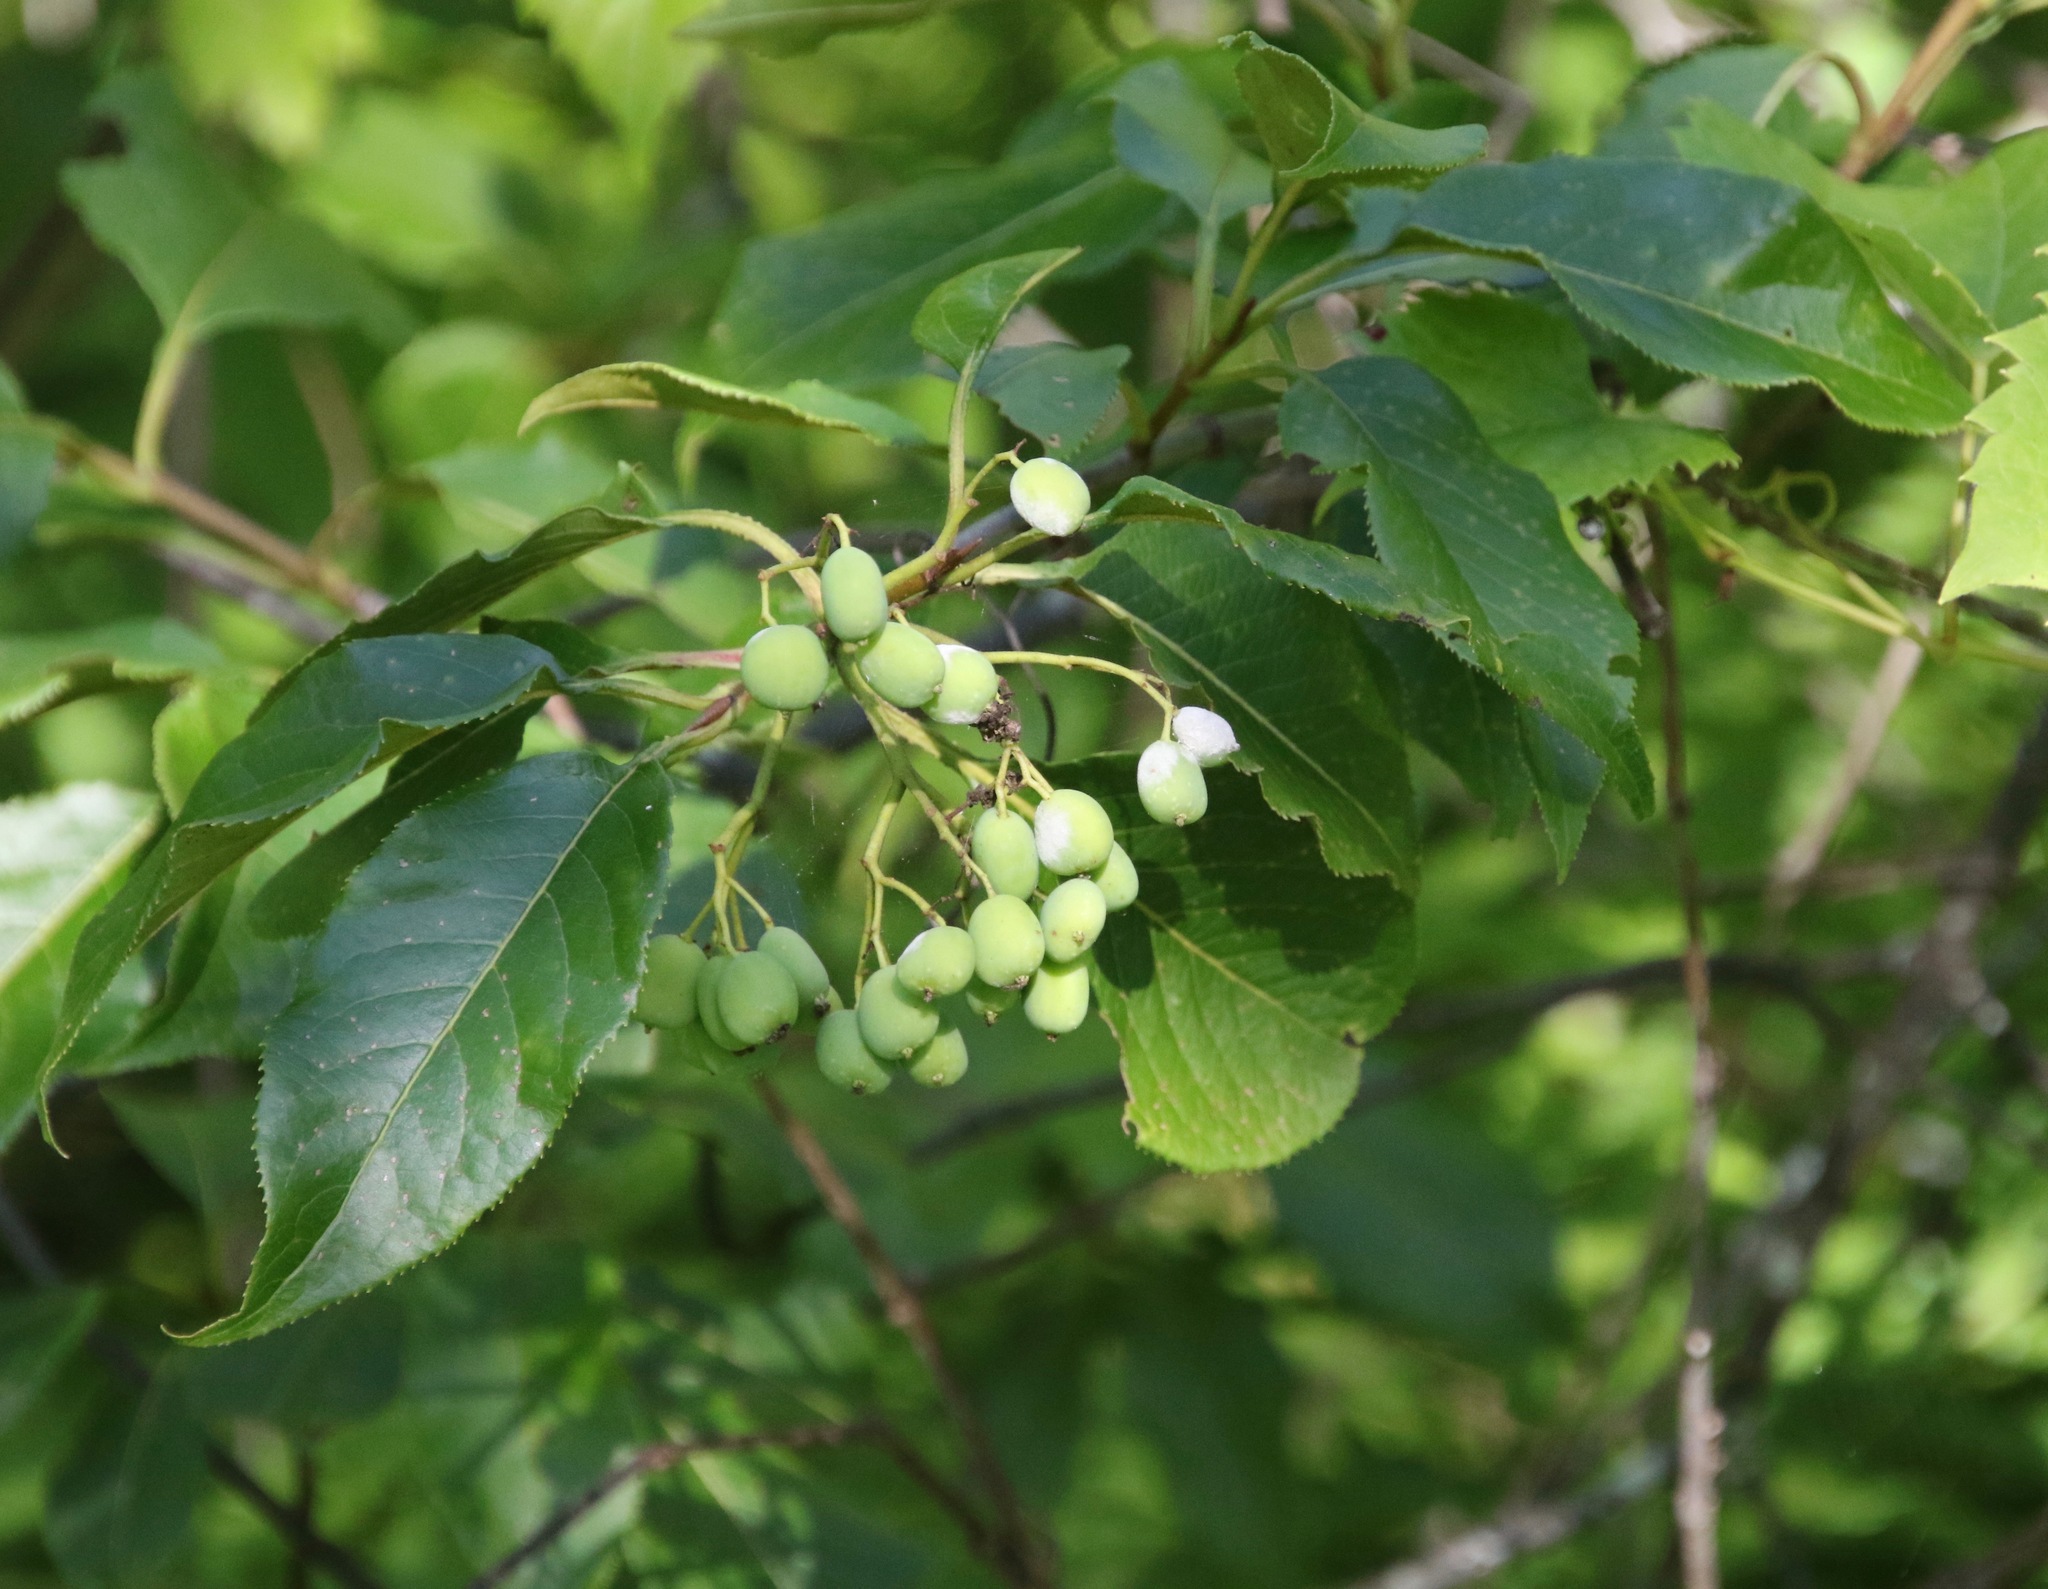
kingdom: Plantae
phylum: Tracheophyta
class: Magnoliopsida
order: Dipsacales
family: Viburnaceae
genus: Viburnum
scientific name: Viburnum lentago
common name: Black haw
